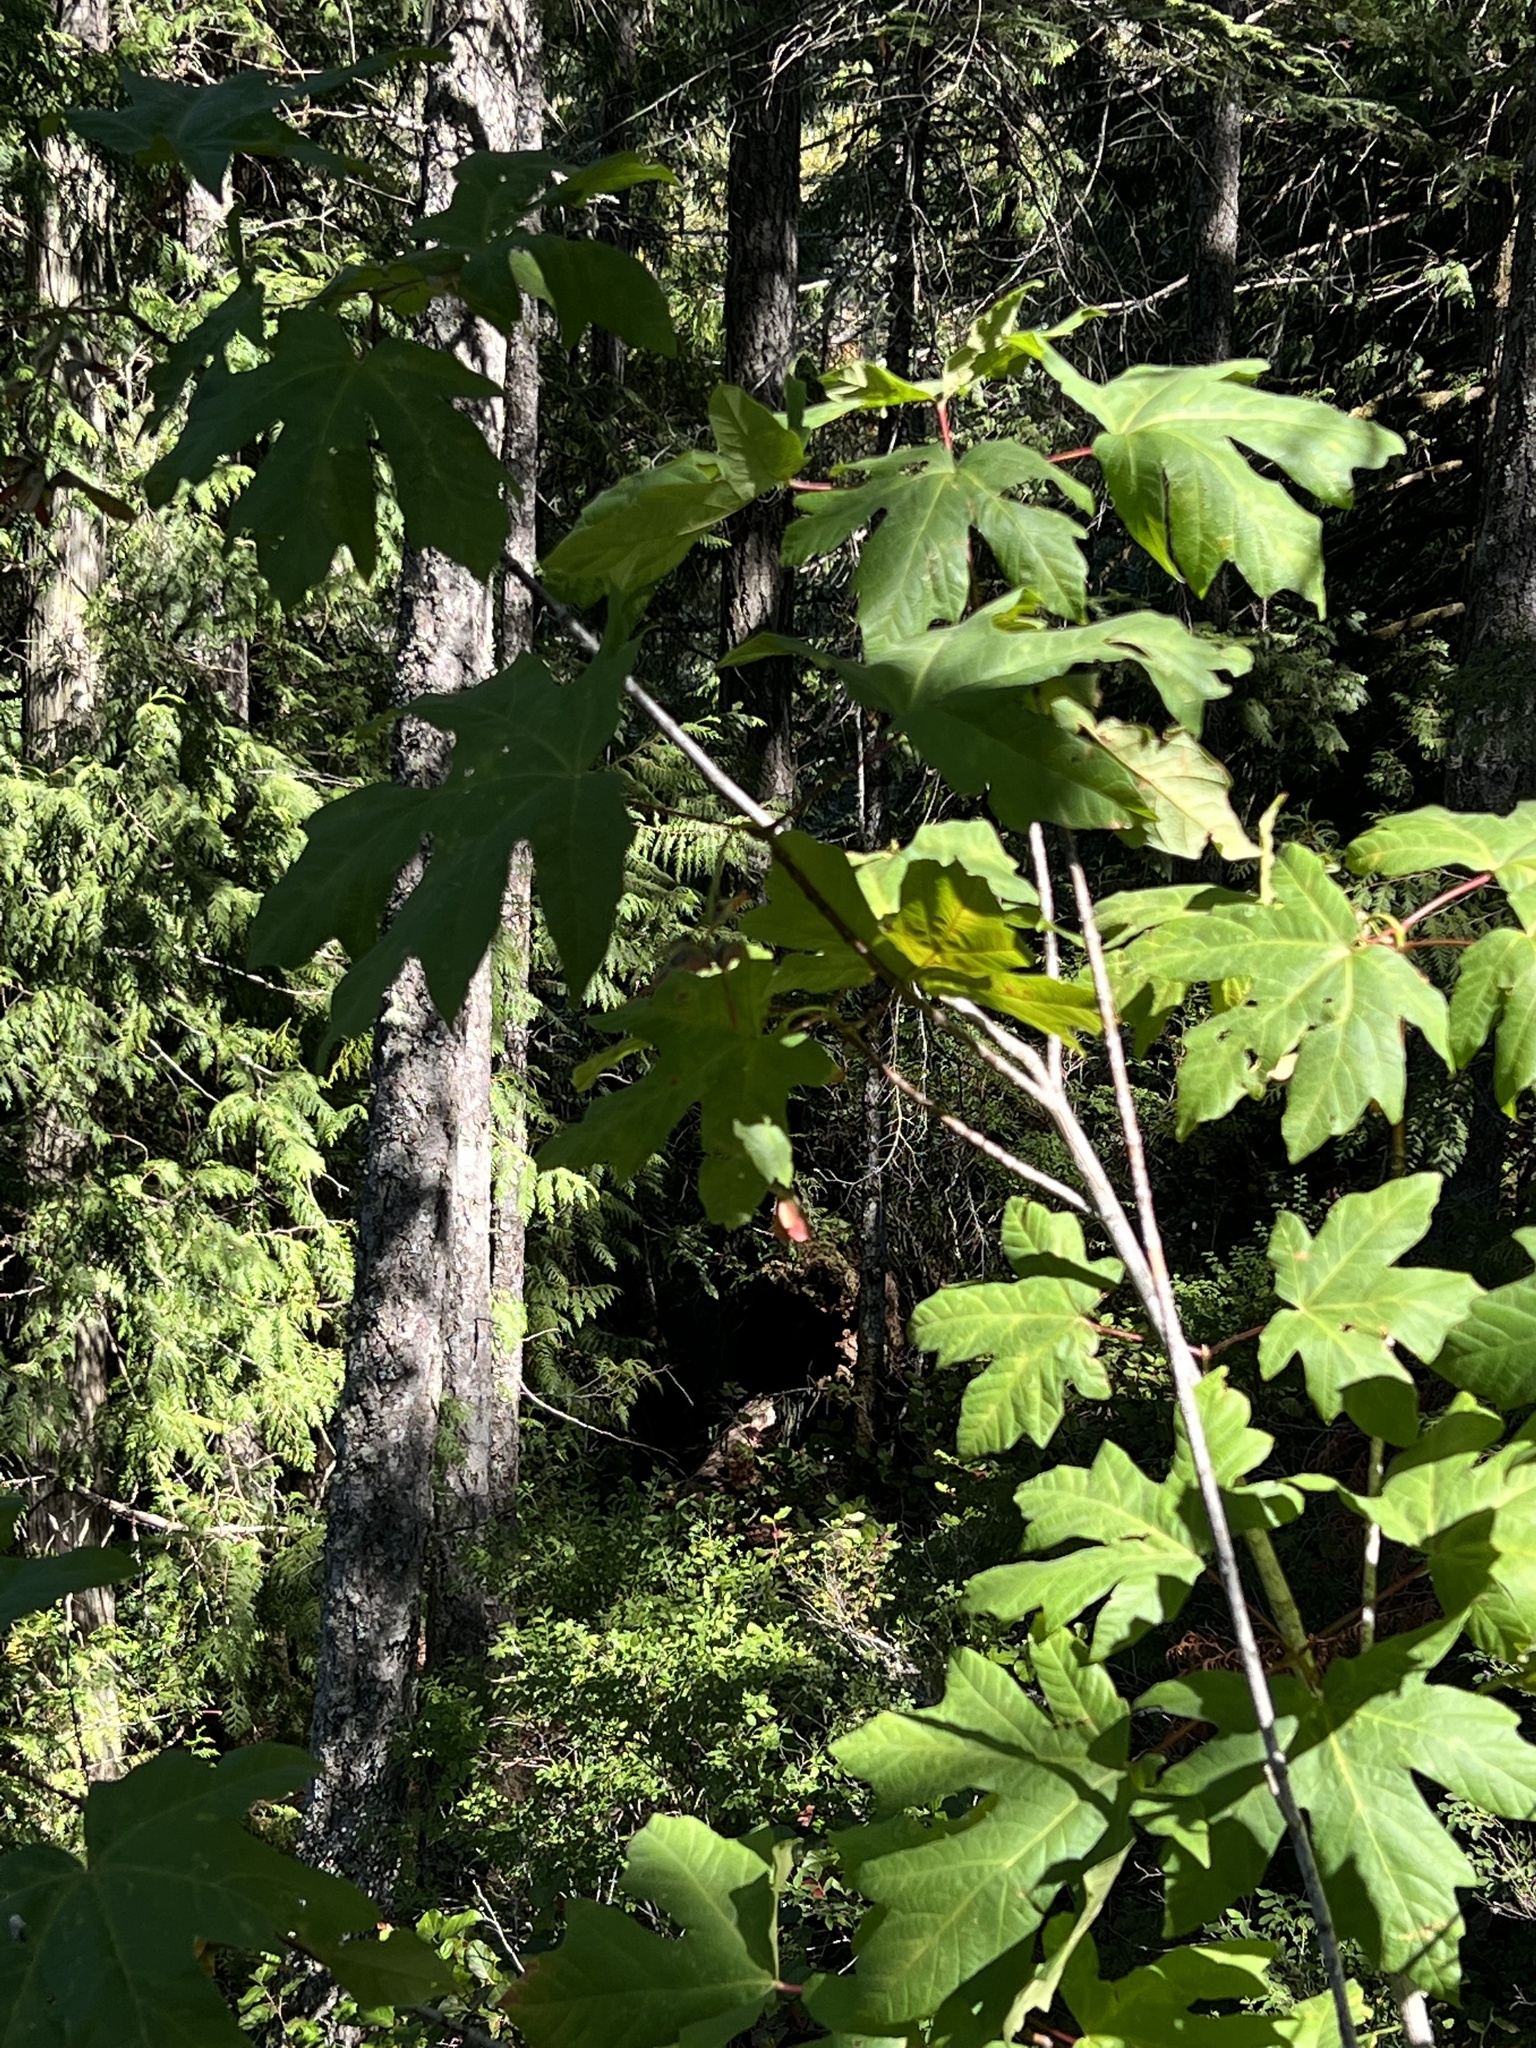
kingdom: Plantae
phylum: Tracheophyta
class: Magnoliopsida
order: Sapindales
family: Sapindaceae
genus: Acer
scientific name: Acer macrophyllum
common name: Oregon maple
